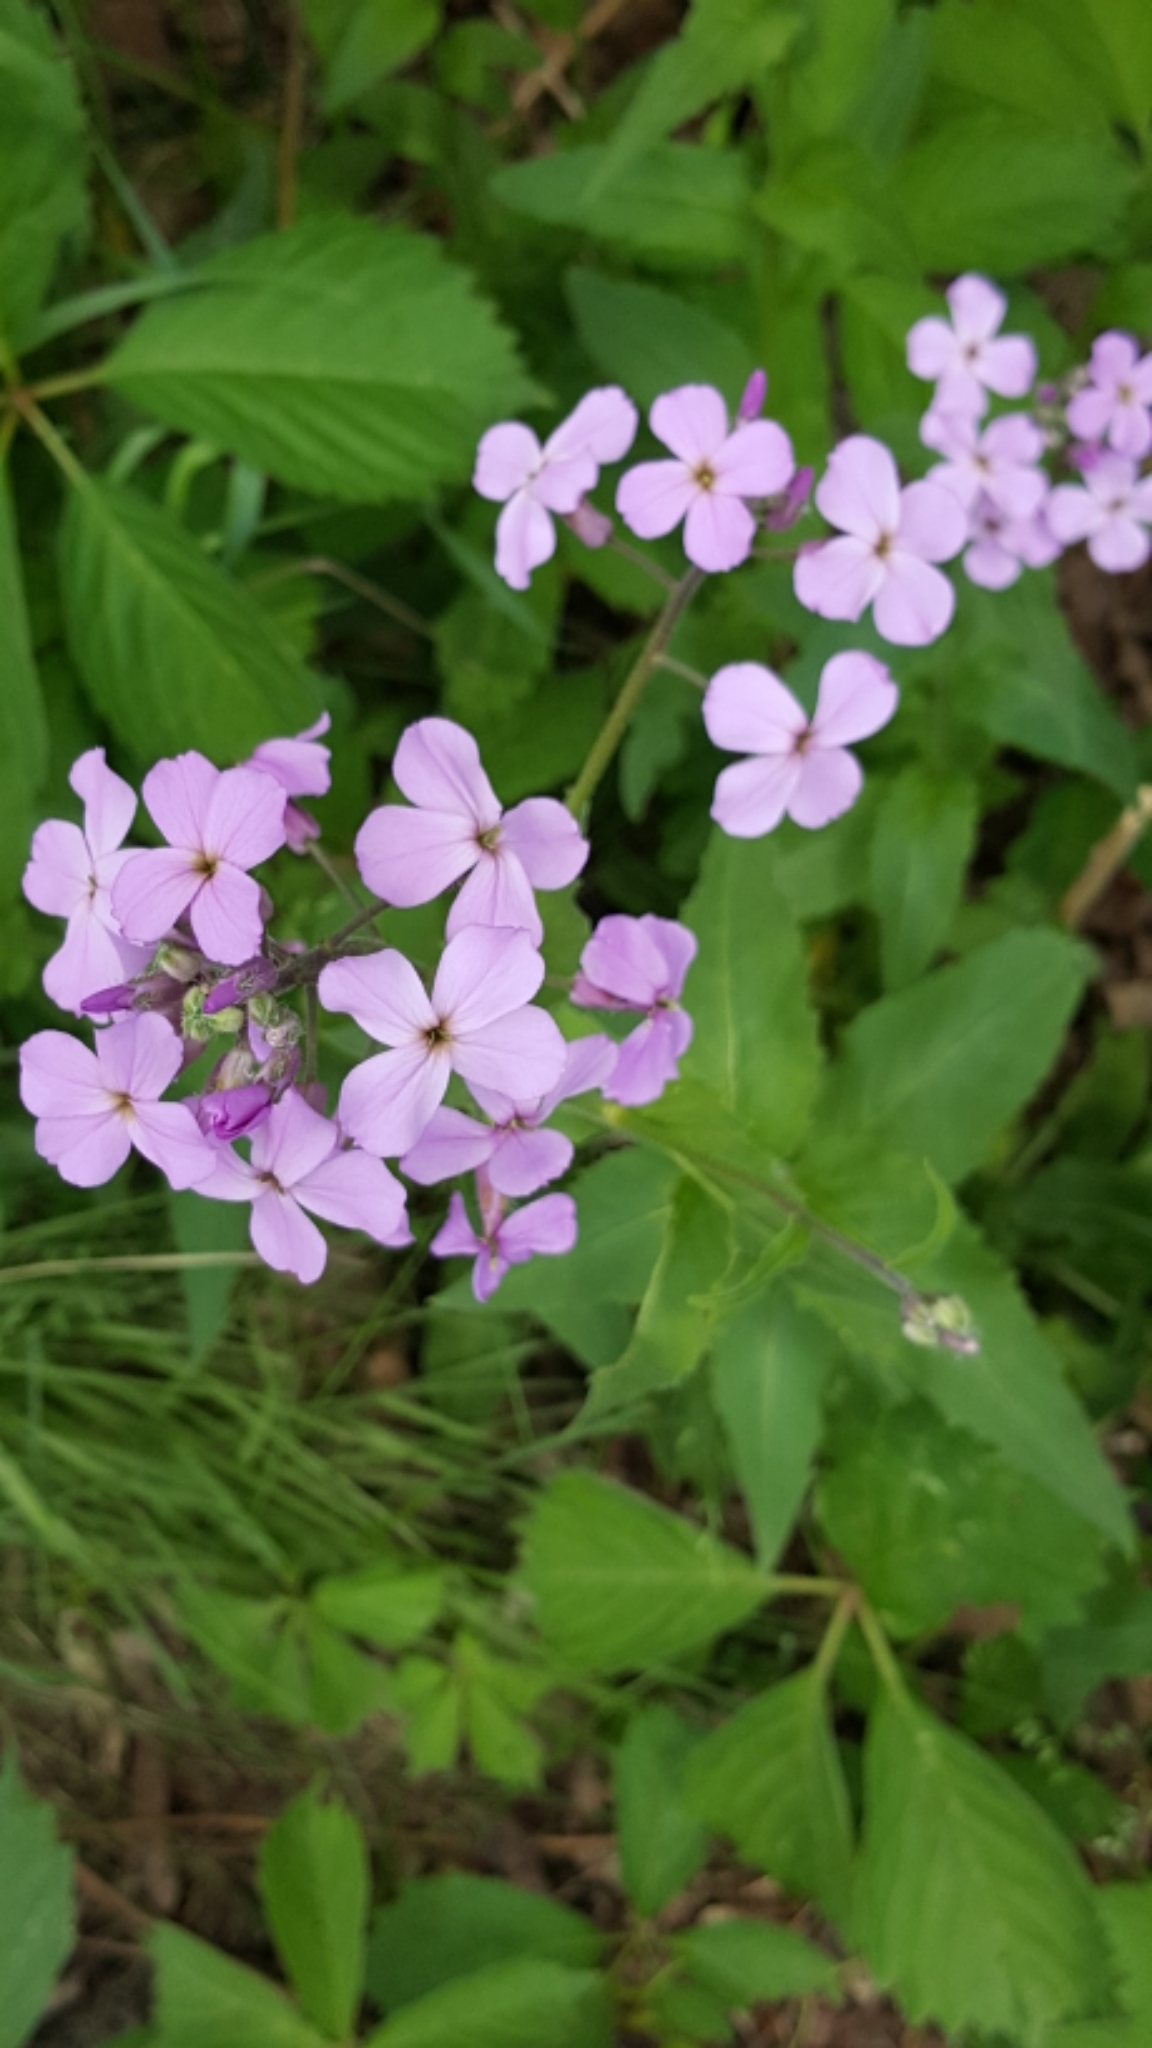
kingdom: Plantae
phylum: Tracheophyta
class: Magnoliopsida
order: Brassicales
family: Brassicaceae
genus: Hesperis
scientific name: Hesperis matronalis
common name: Dame's-violet
